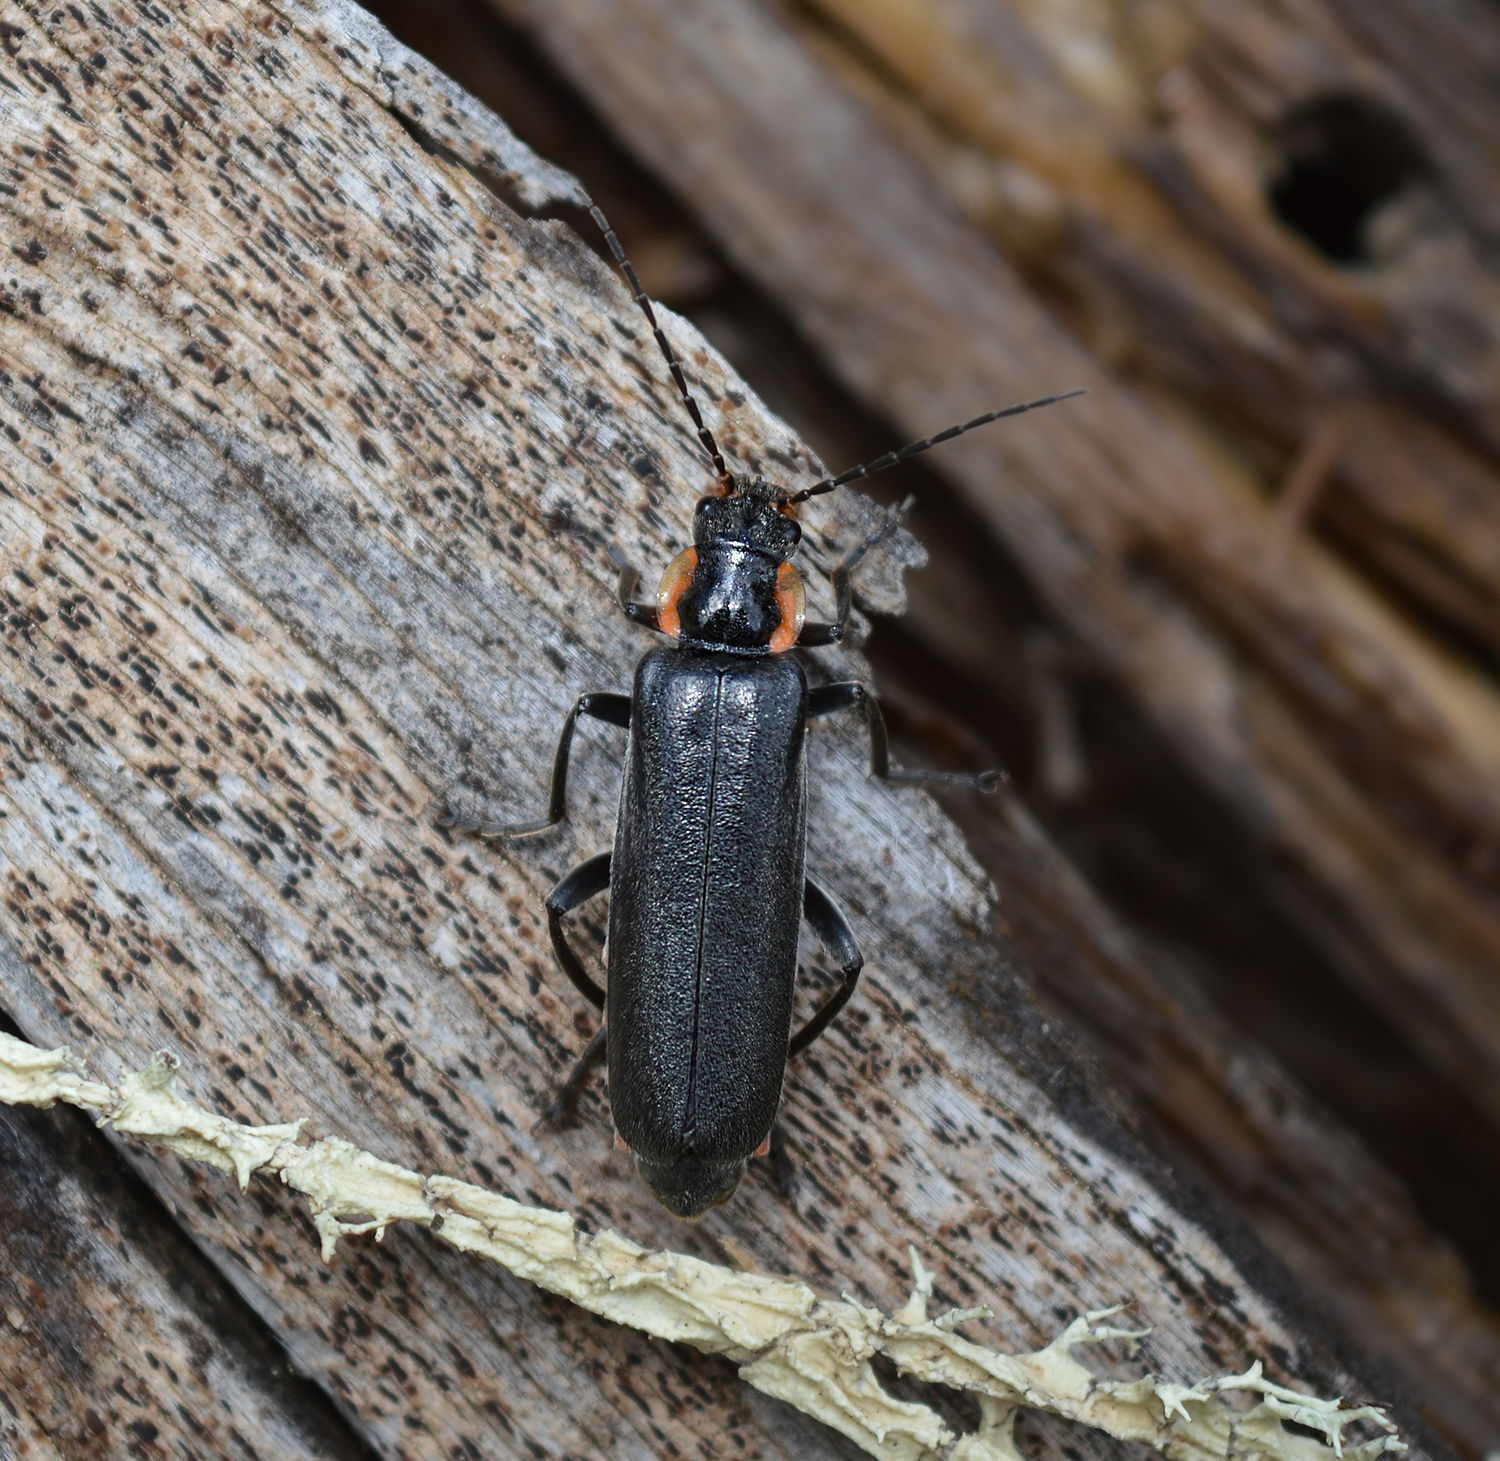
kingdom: Animalia
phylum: Arthropoda
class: Insecta
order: Coleoptera
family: Cantharidae
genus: Cantharis
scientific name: Cantharis
